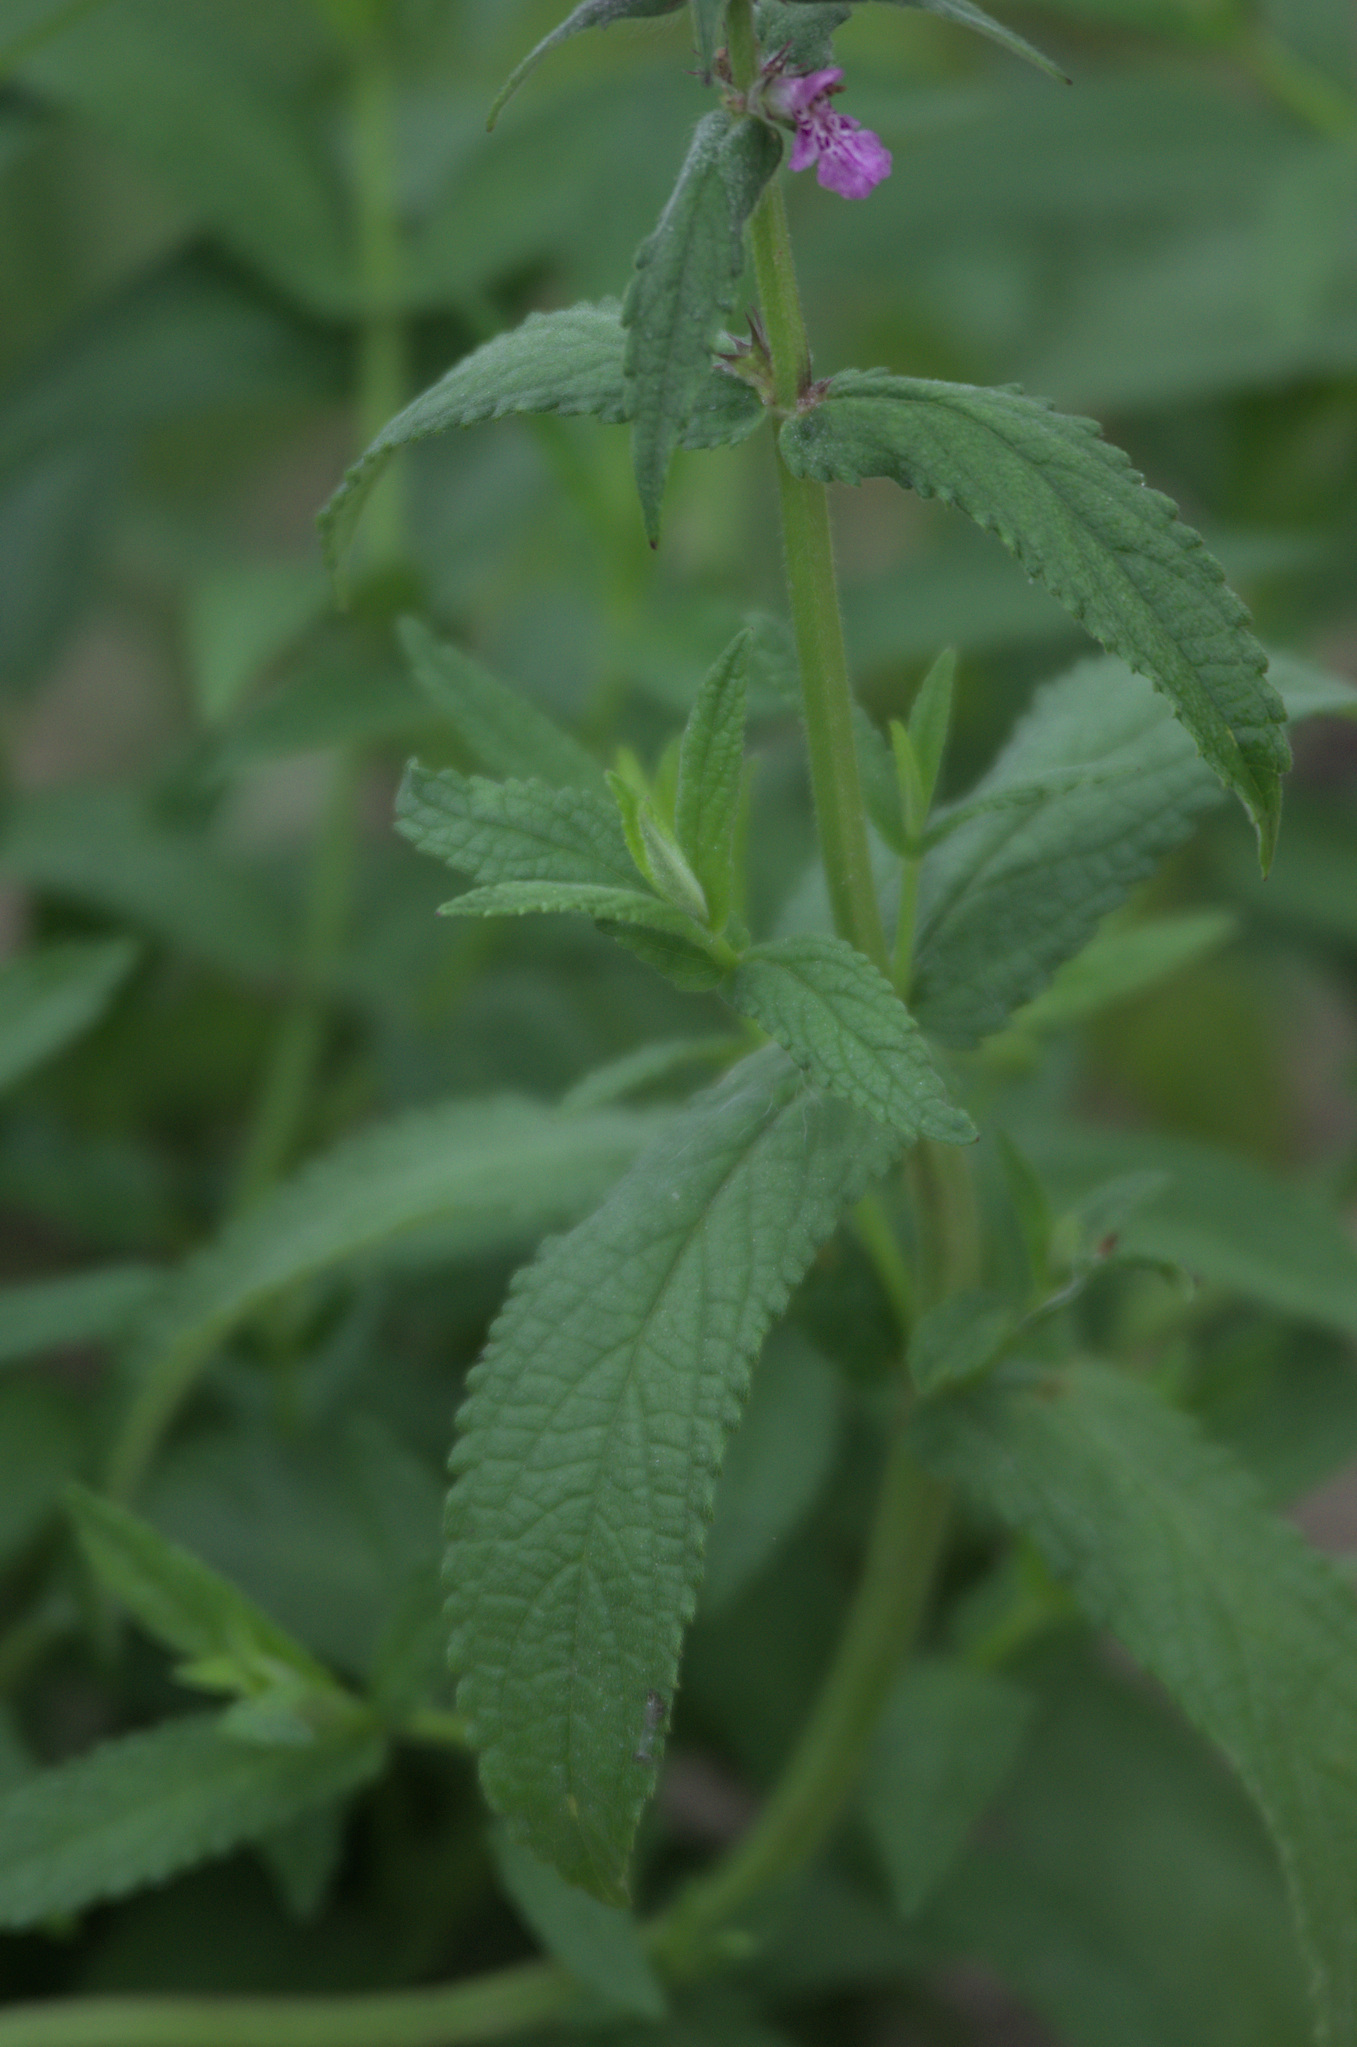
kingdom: Plantae
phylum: Tracheophyta
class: Magnoliopsida
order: Lamiales
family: Lamiaceae
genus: Stachys
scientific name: Stachys palustris
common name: Marsh woundwort
